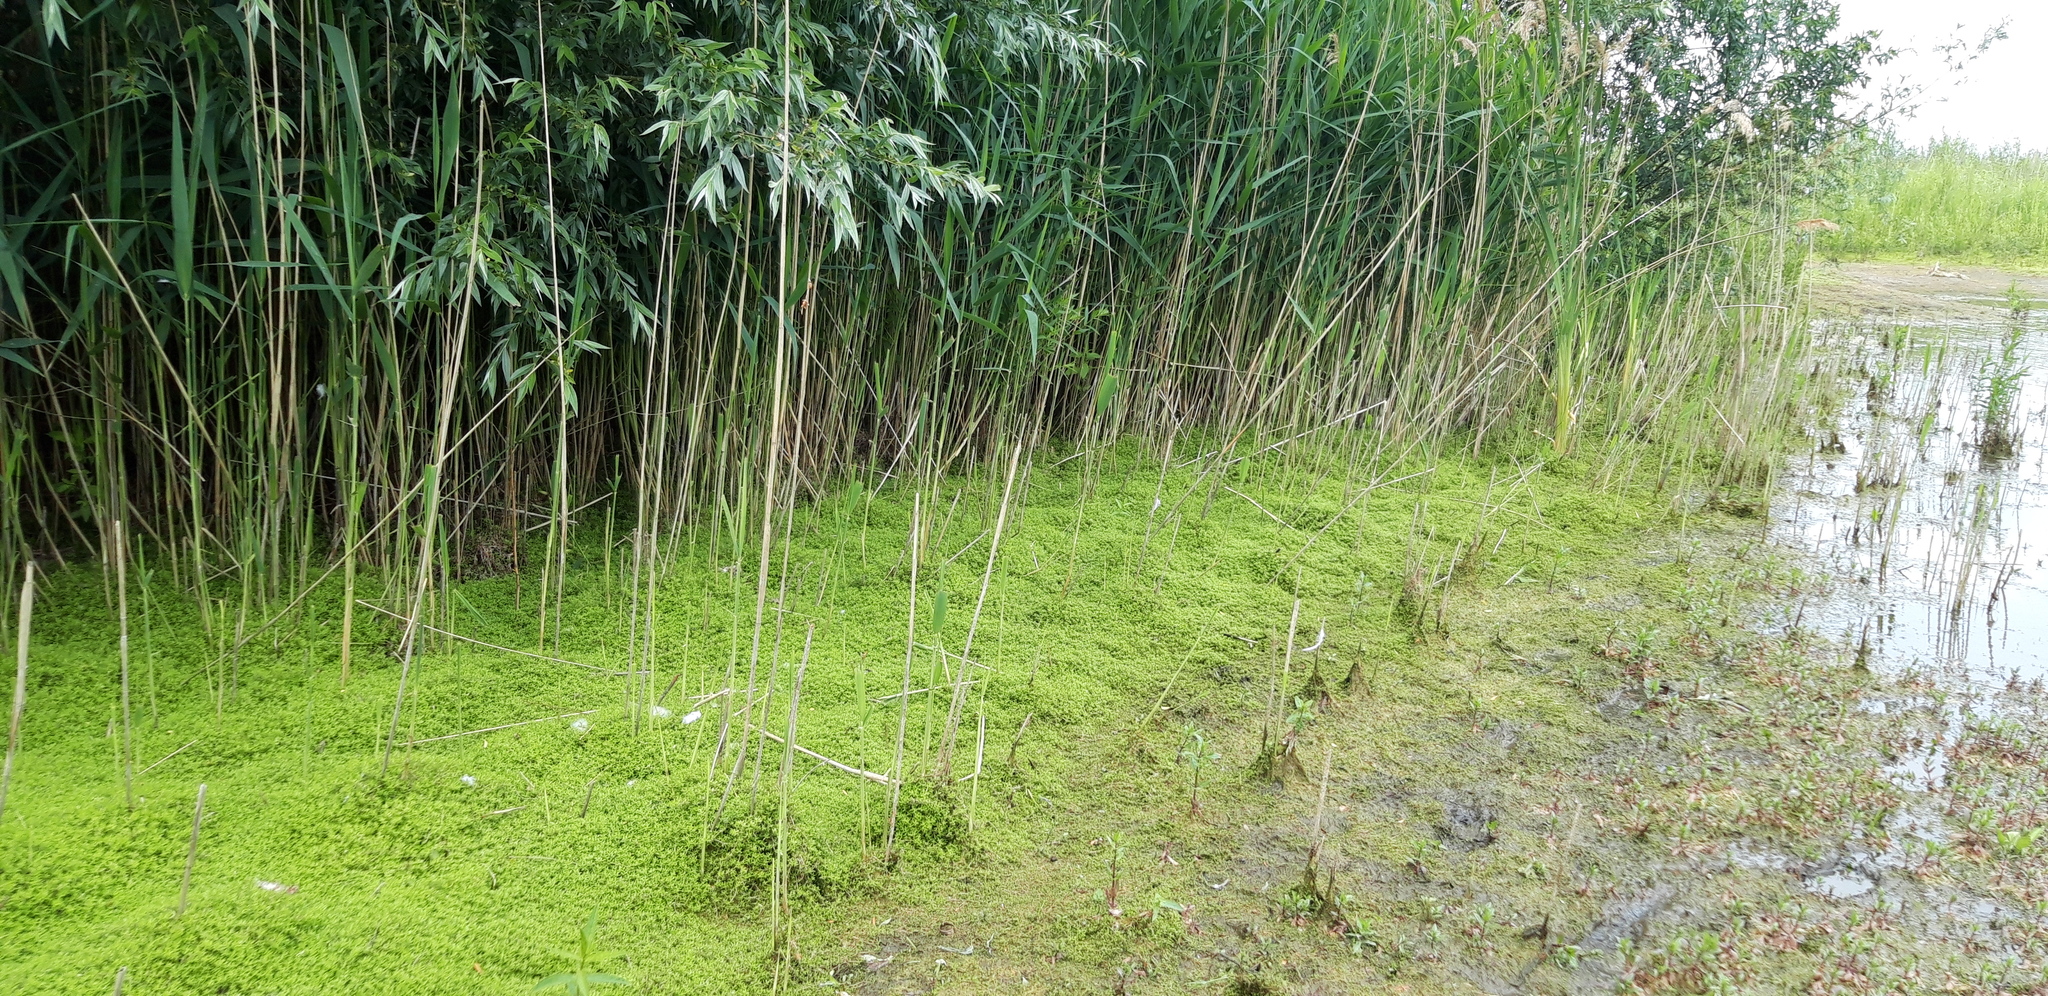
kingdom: Plantae
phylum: Tracheophyta
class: Magnoliopsida
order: Saxifragales
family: Crassulaceae
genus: Crassula
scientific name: Crassula helmsii
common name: New zealand pigmyweed
